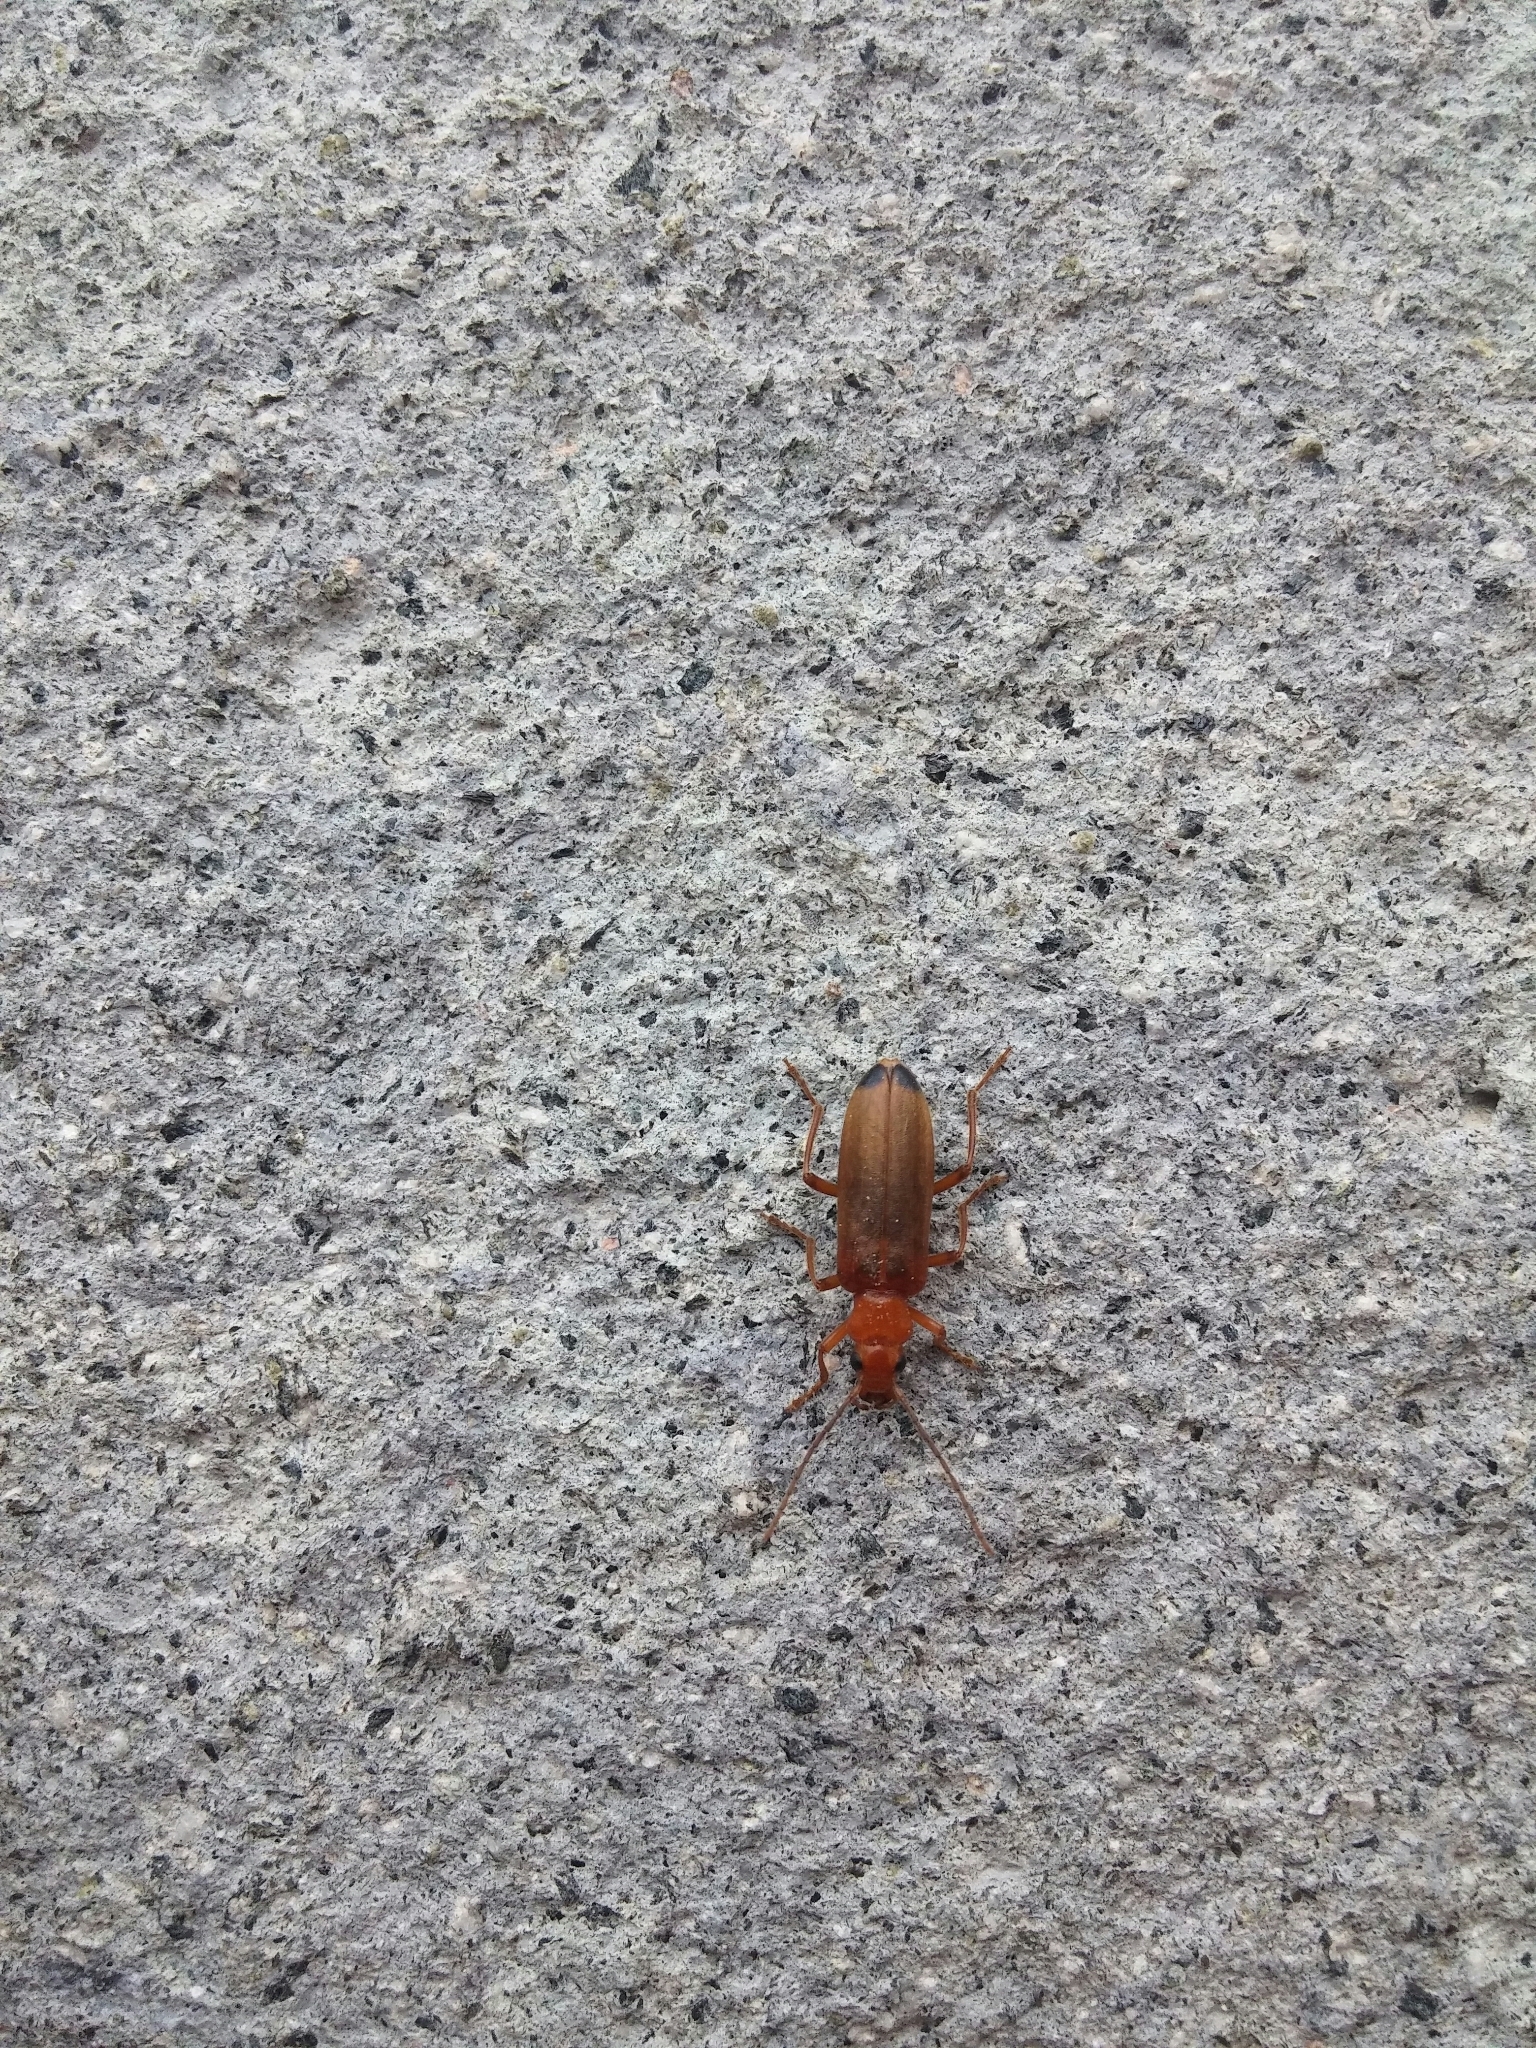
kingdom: Animalia
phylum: Arthropoda
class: Insecta
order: Coleoptera
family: Oedemeridae
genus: Nacerdes
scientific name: Nacerdes melanura
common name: Wharf borer
